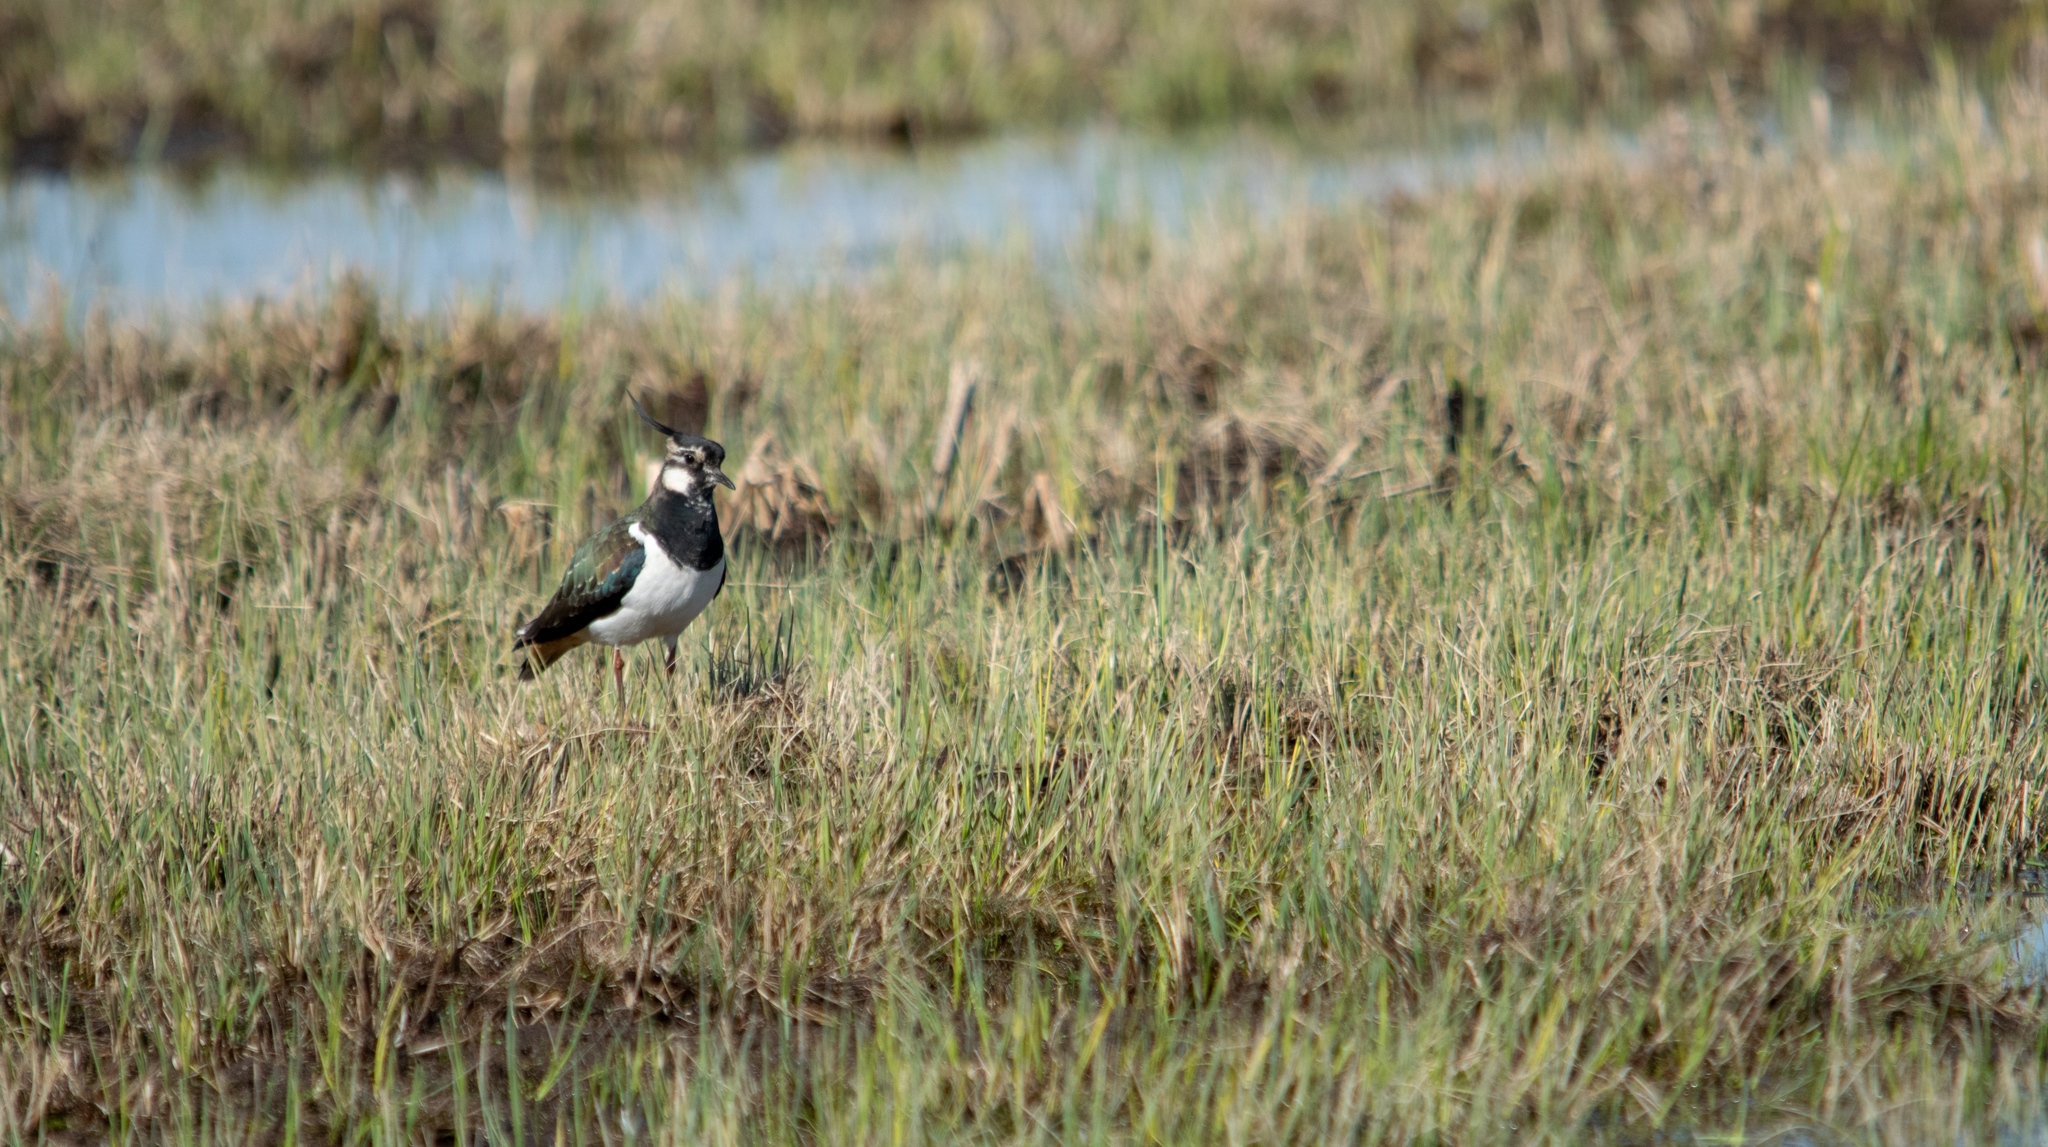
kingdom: Animalia
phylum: Chordata
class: Aves
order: Charadriiformes
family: Charadriidae
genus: Vanellus
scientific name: Vanellus vanellus
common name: Northern lapwing
